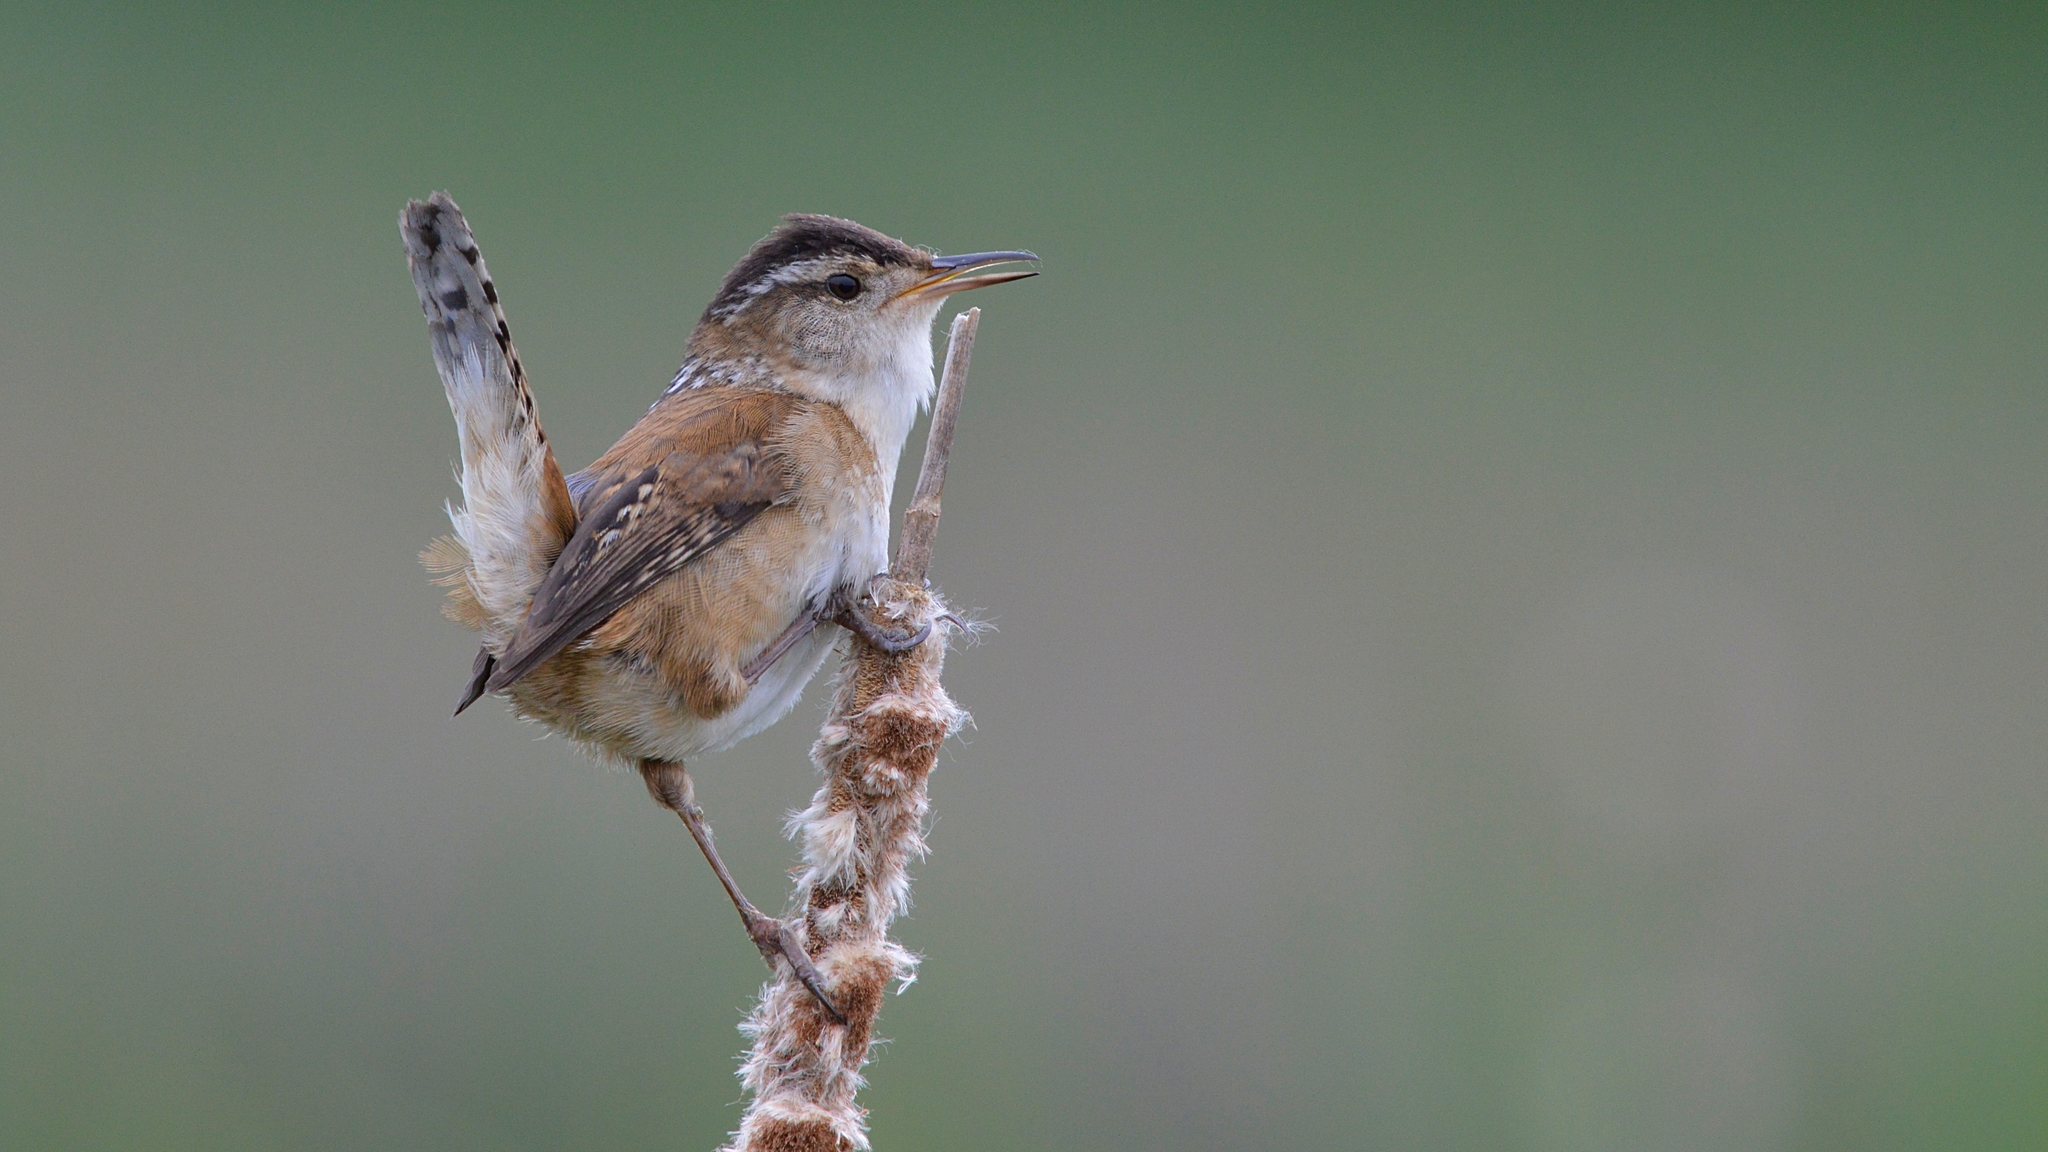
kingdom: Animalia
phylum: Chordata
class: Aves
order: Passeriformes
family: Troglodytidae
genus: Cistothorus
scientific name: Cistothorus palustris
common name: Marsh wren
